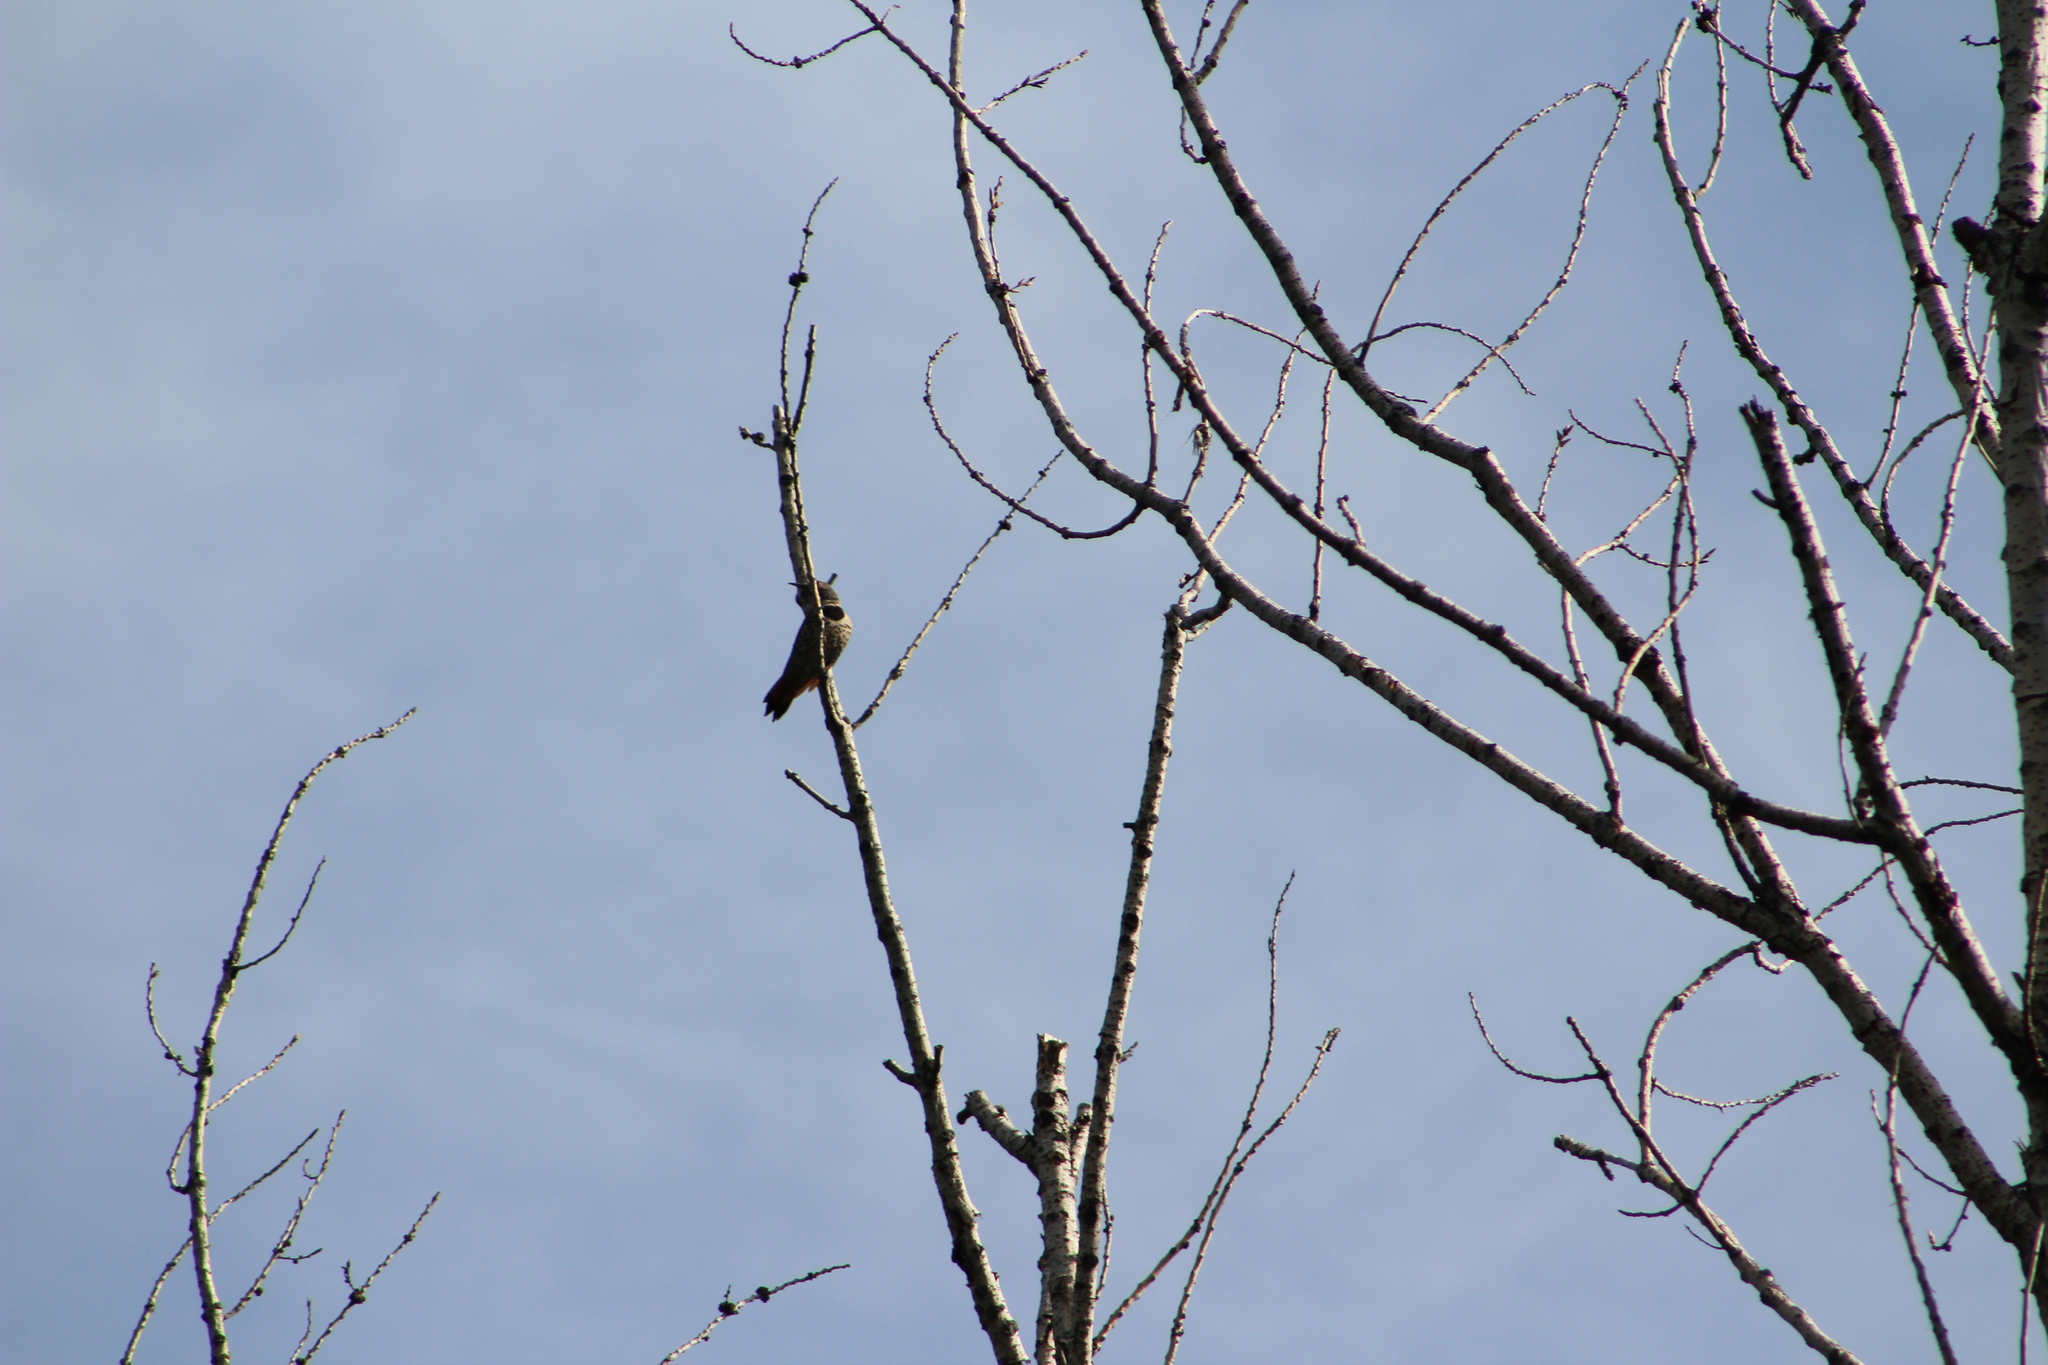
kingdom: Animalia
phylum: Chordata
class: Aves
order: Piciformes
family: Picidae
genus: Colaptes
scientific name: Colaptes auratus
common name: Northern flicker
